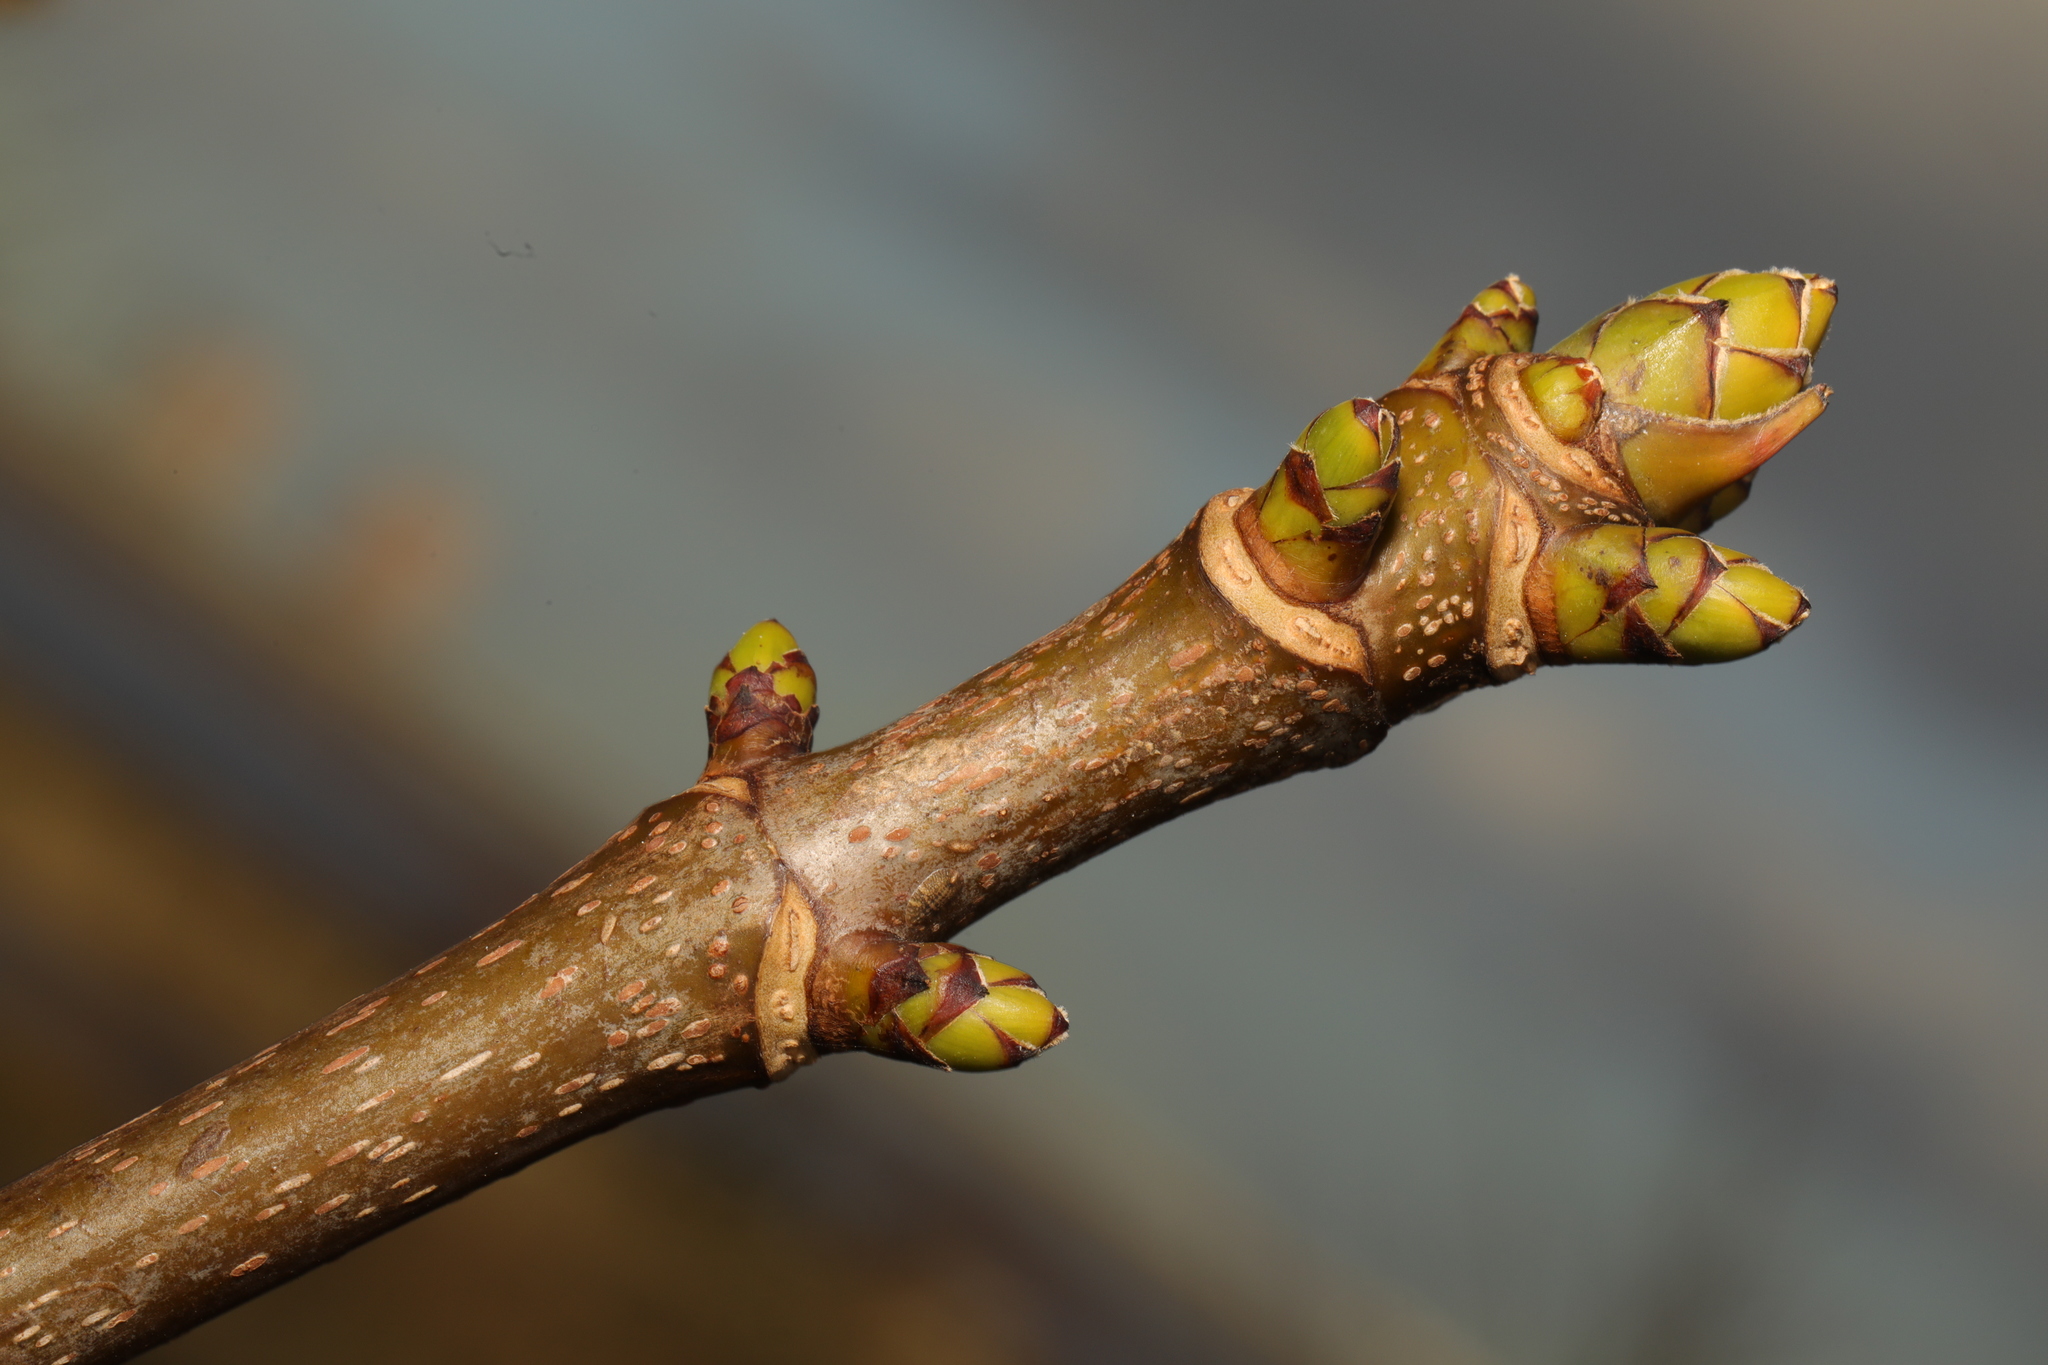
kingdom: Plantae
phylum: Tracheophyta
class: Magnoliopsida
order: Sapindales
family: Sapindaceae
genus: Acer
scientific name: Acer pseudoplatanus
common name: Sycamore
